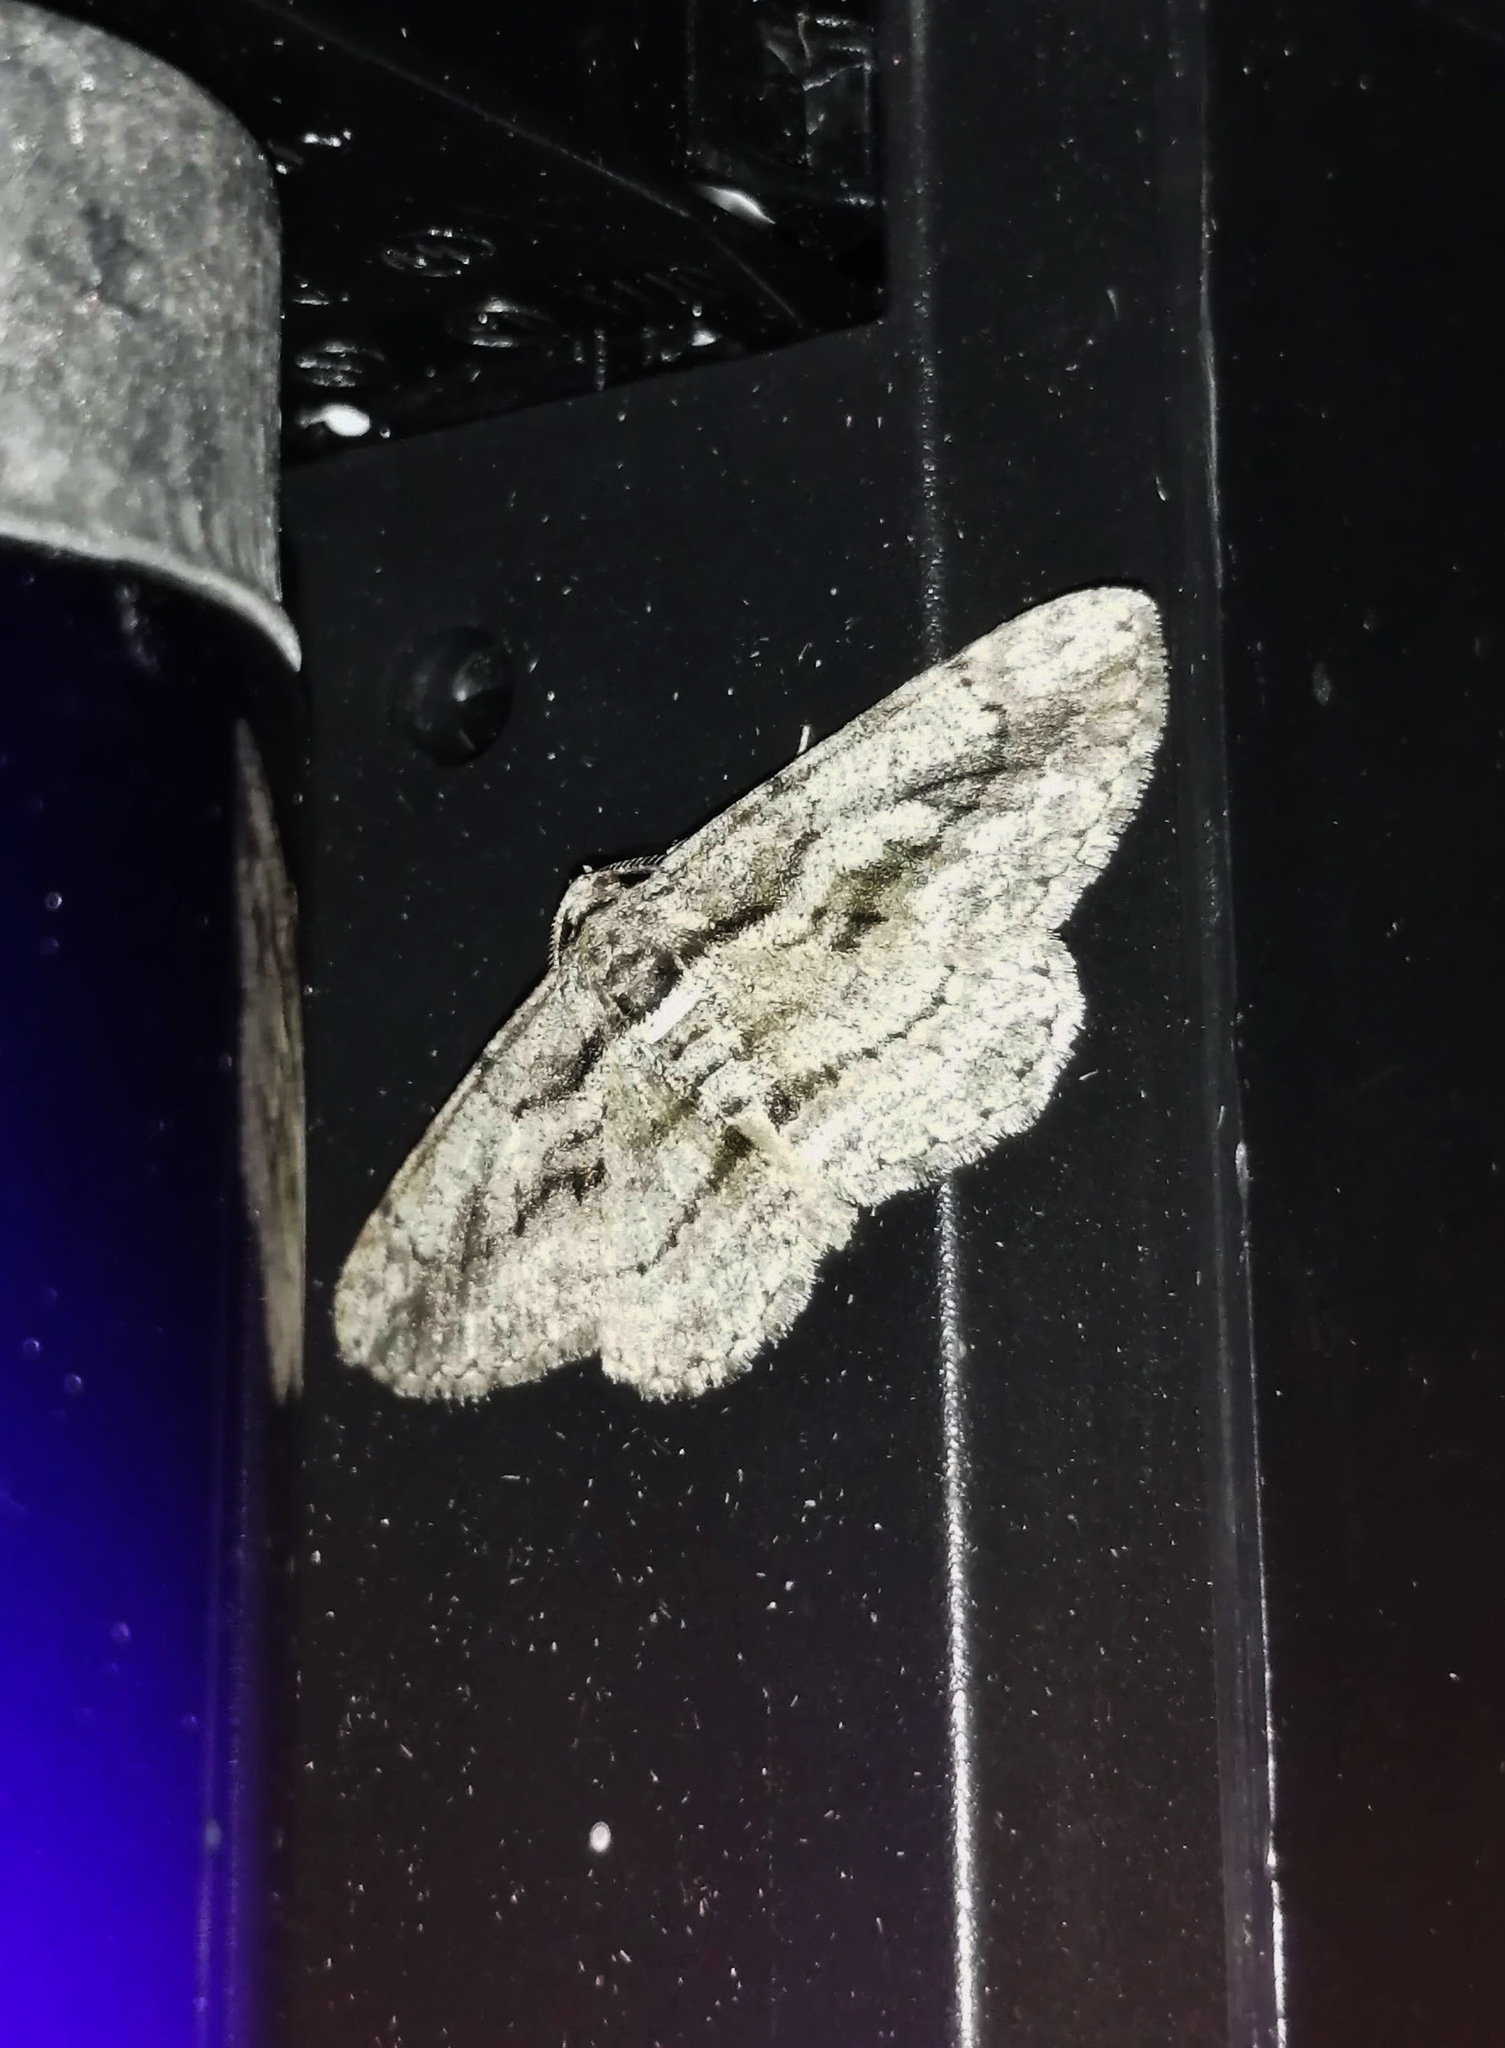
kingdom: Animalia
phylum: Arthropoda
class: Insecta
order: Lepidoptera
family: Geometridae
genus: Anavitrinella
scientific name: Anavitrinella pampinaria
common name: Common gray
